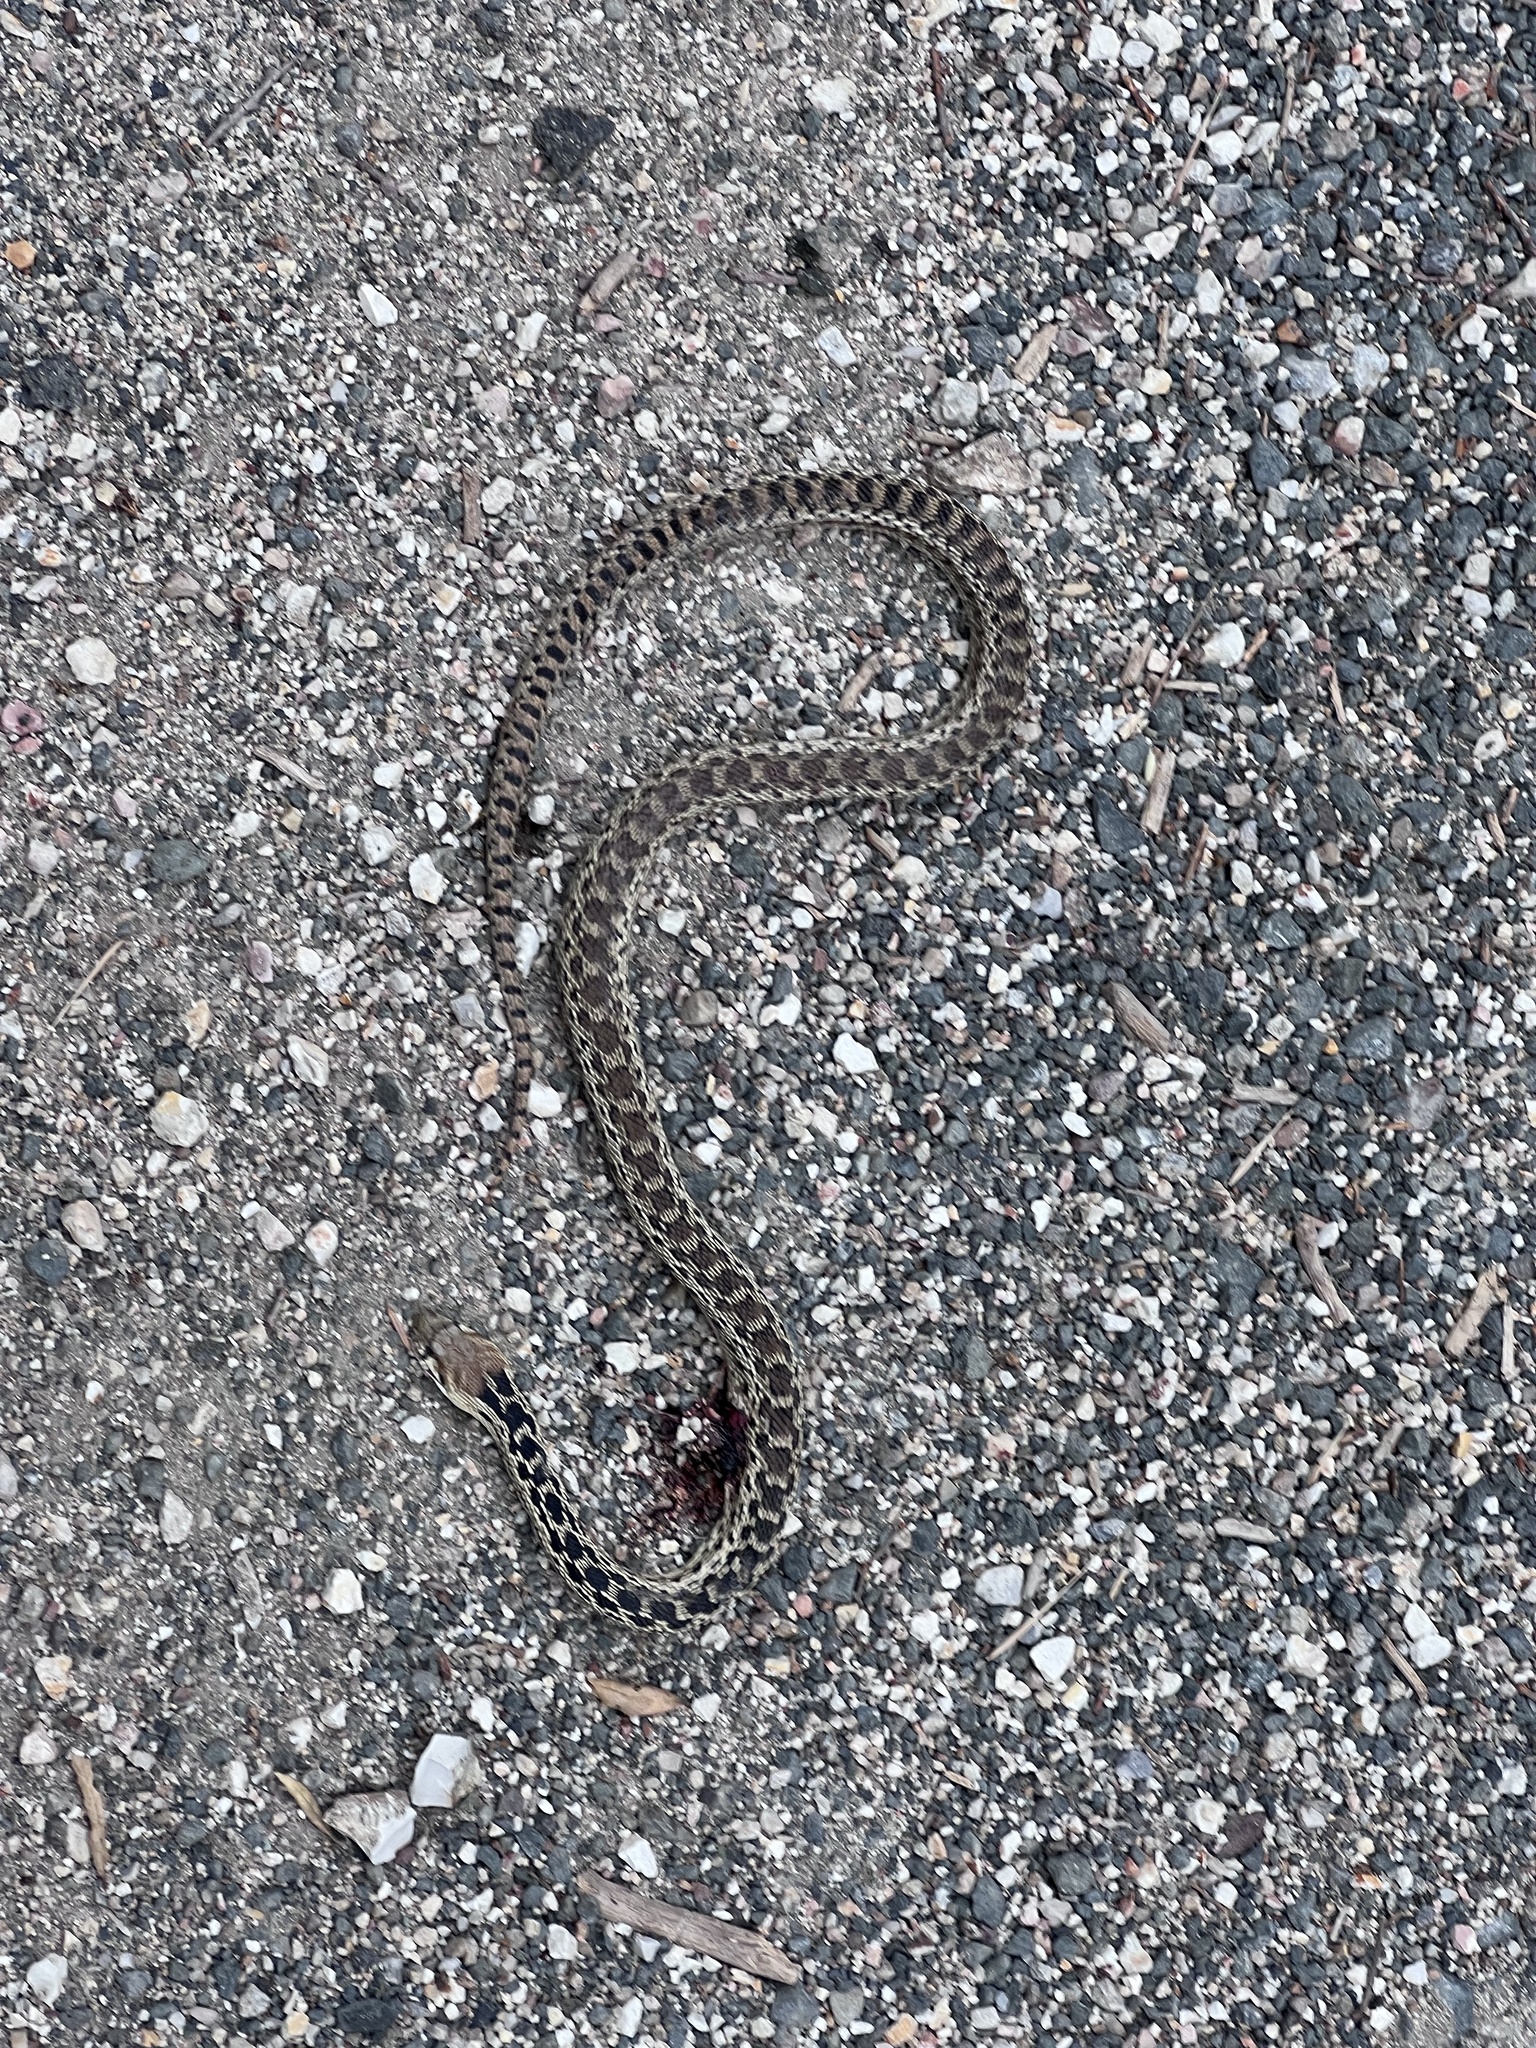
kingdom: Animalia
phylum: Chordata
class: Squamata
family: Colubridae
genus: Pituophis
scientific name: Pituophis catenifer
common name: Gopher snake
